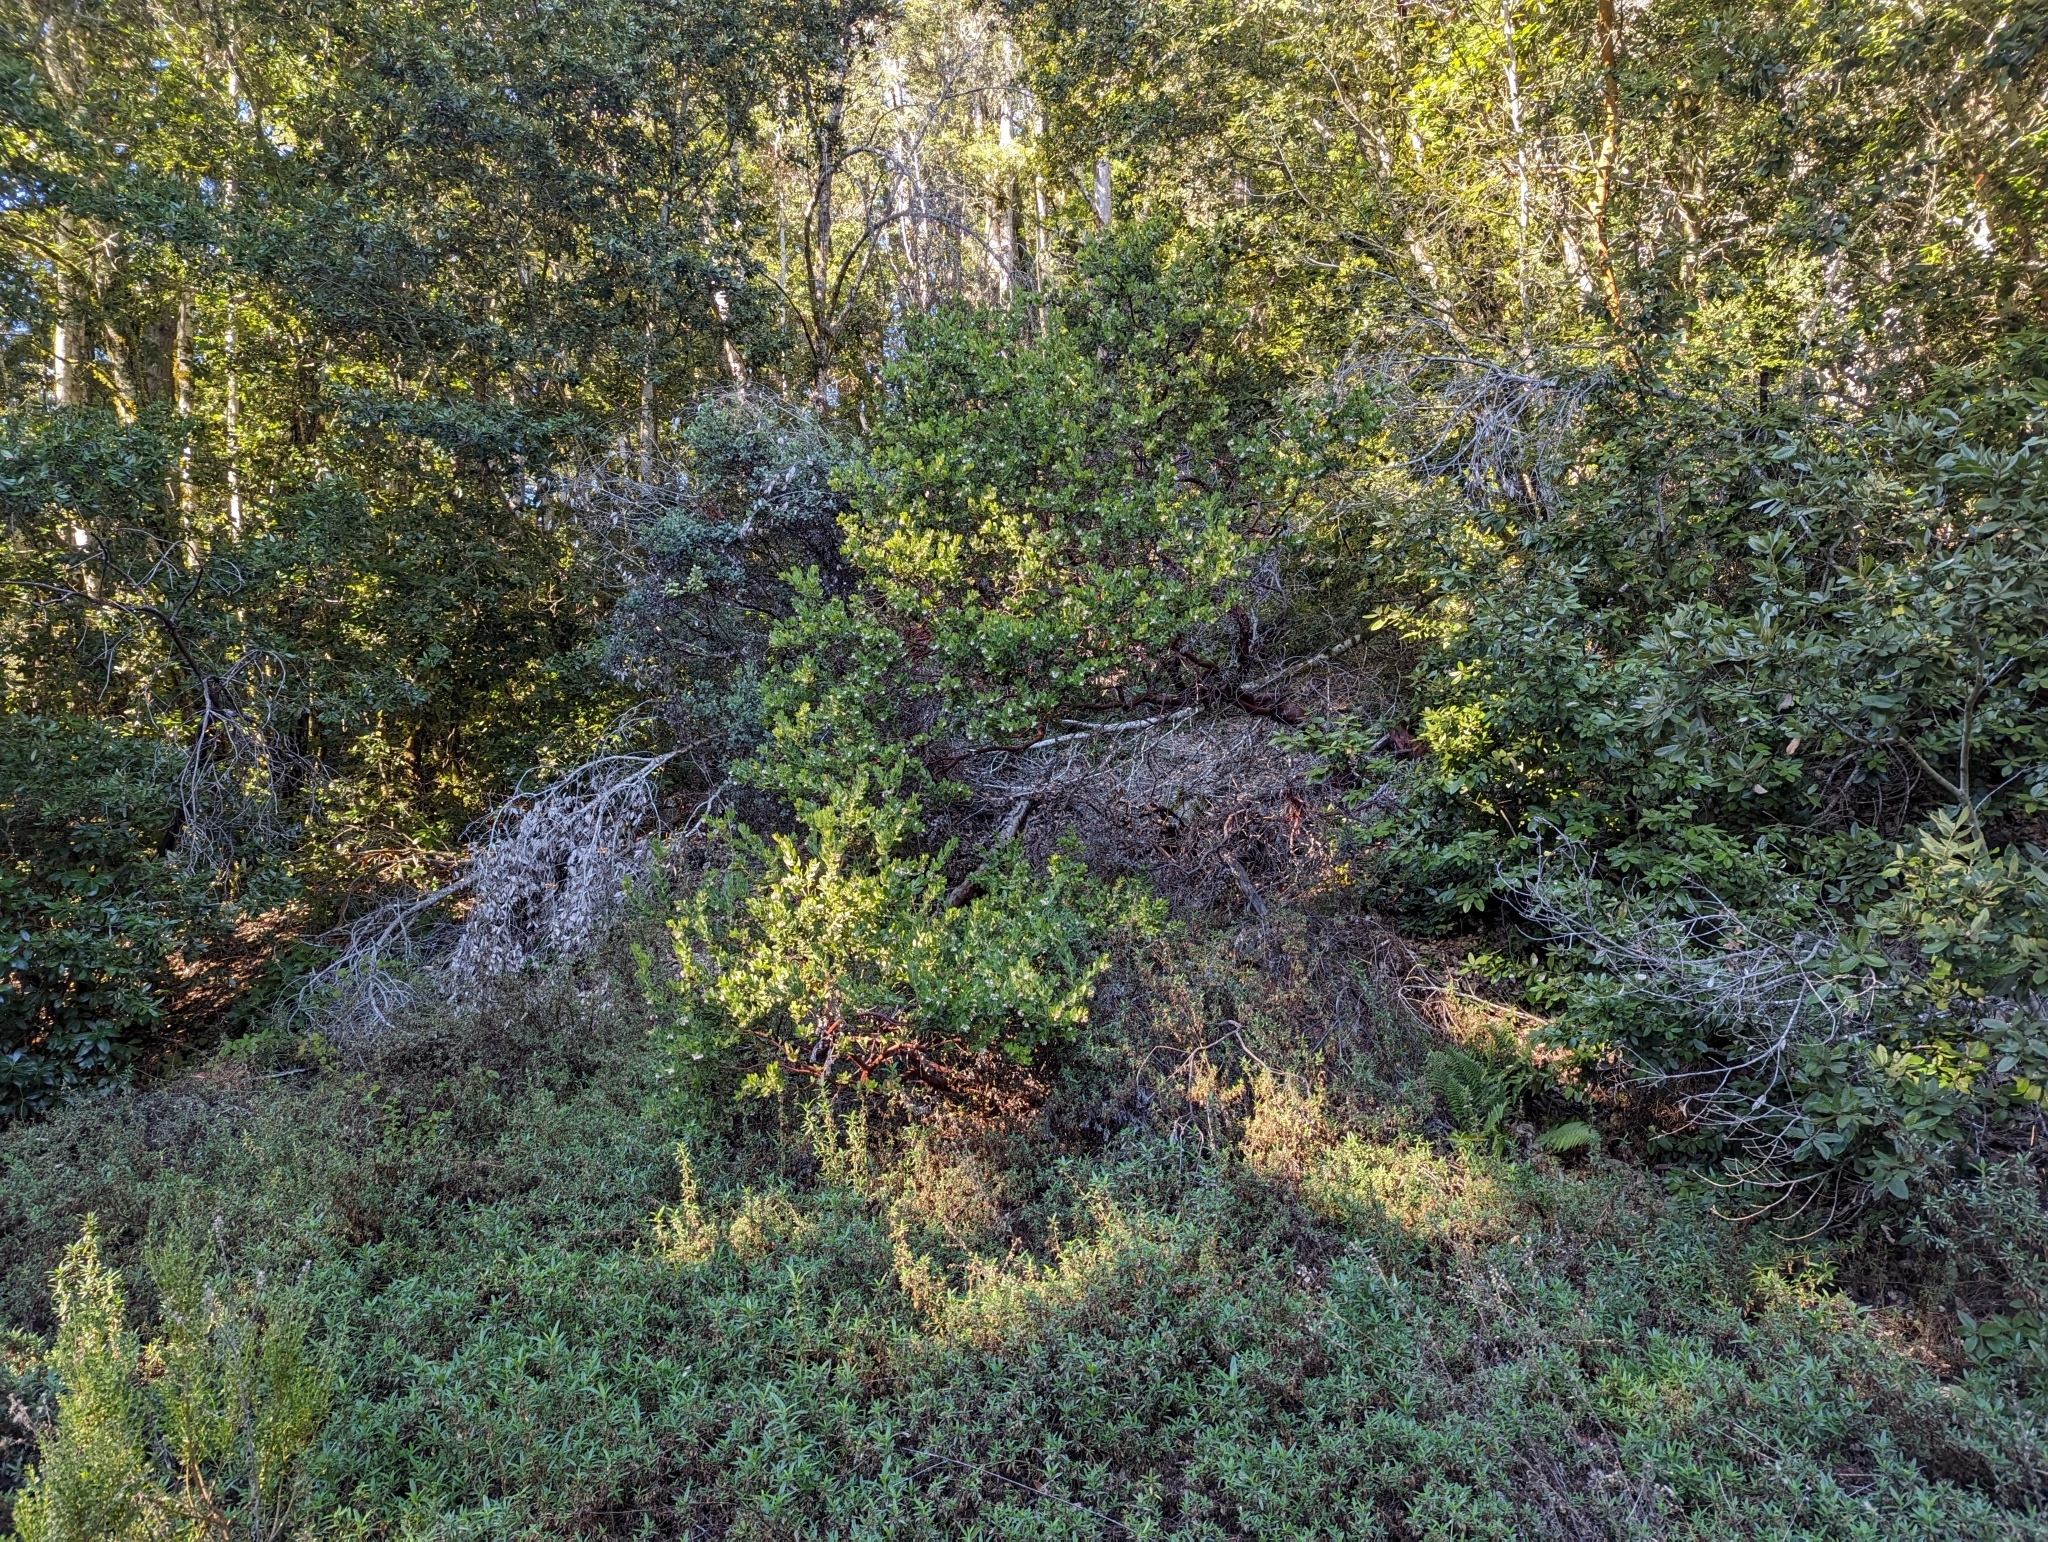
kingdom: Plantae
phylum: Tracheophyta
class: Magnoliopsida
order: Ericales
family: Ericaceae
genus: Arctostaphylos
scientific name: Arctostaphylos regismontana
